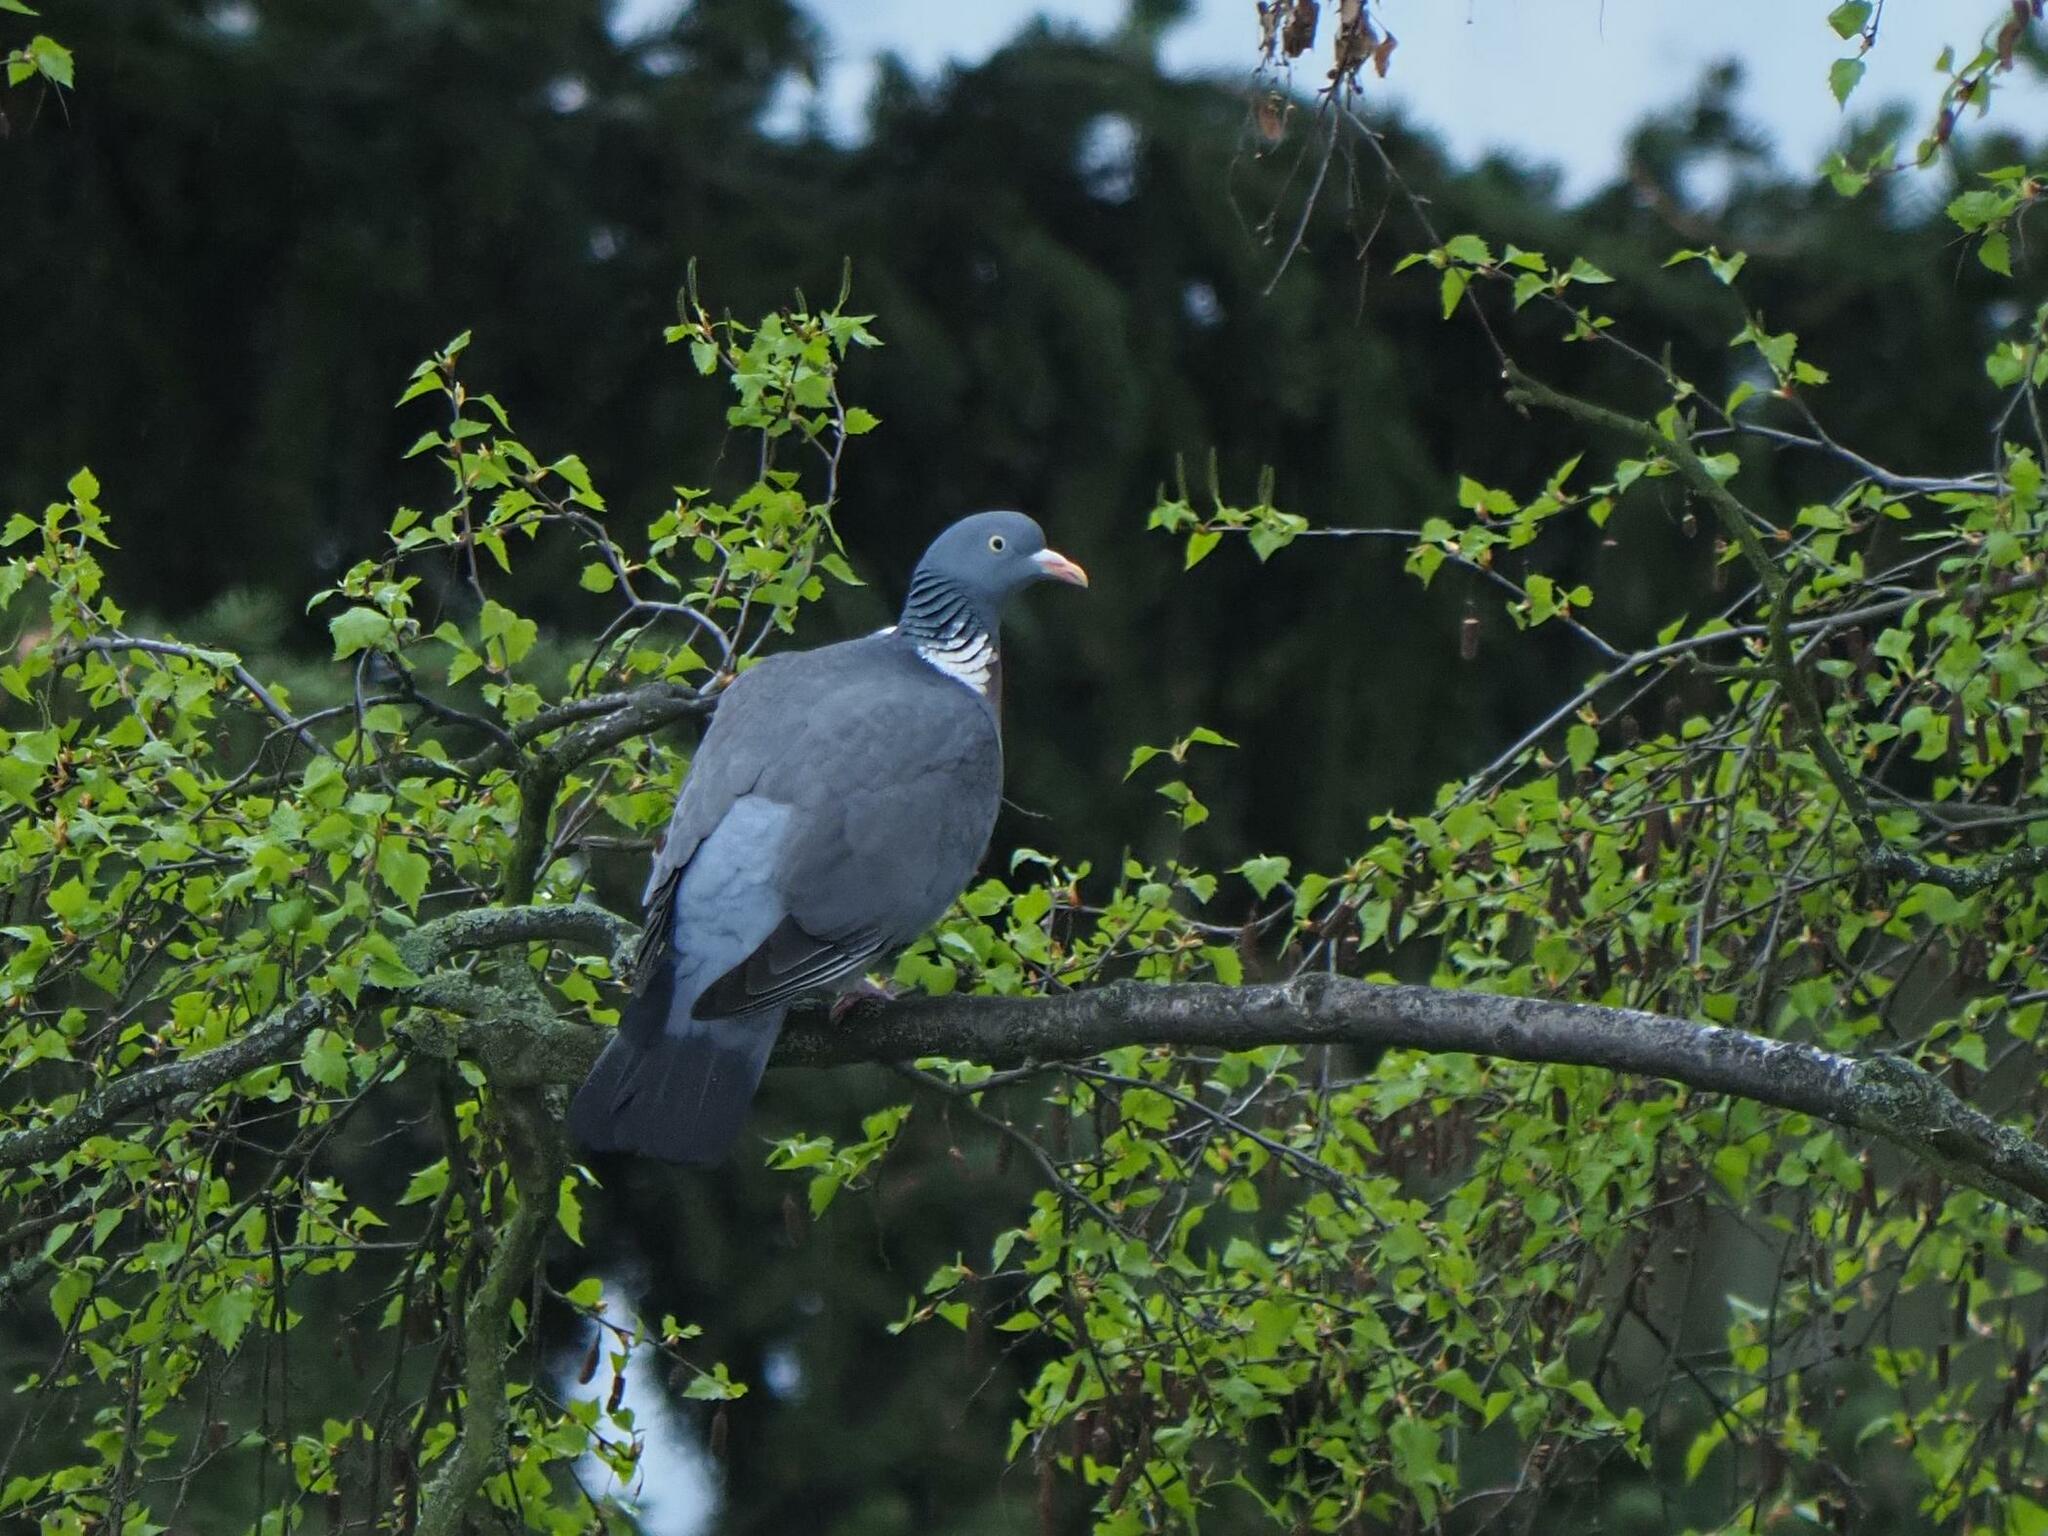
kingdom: Animalia
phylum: Chordata
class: Aves
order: Columbiformes
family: Columbidae
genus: Columba
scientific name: Columba palumbus
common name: Common wood pigeon
